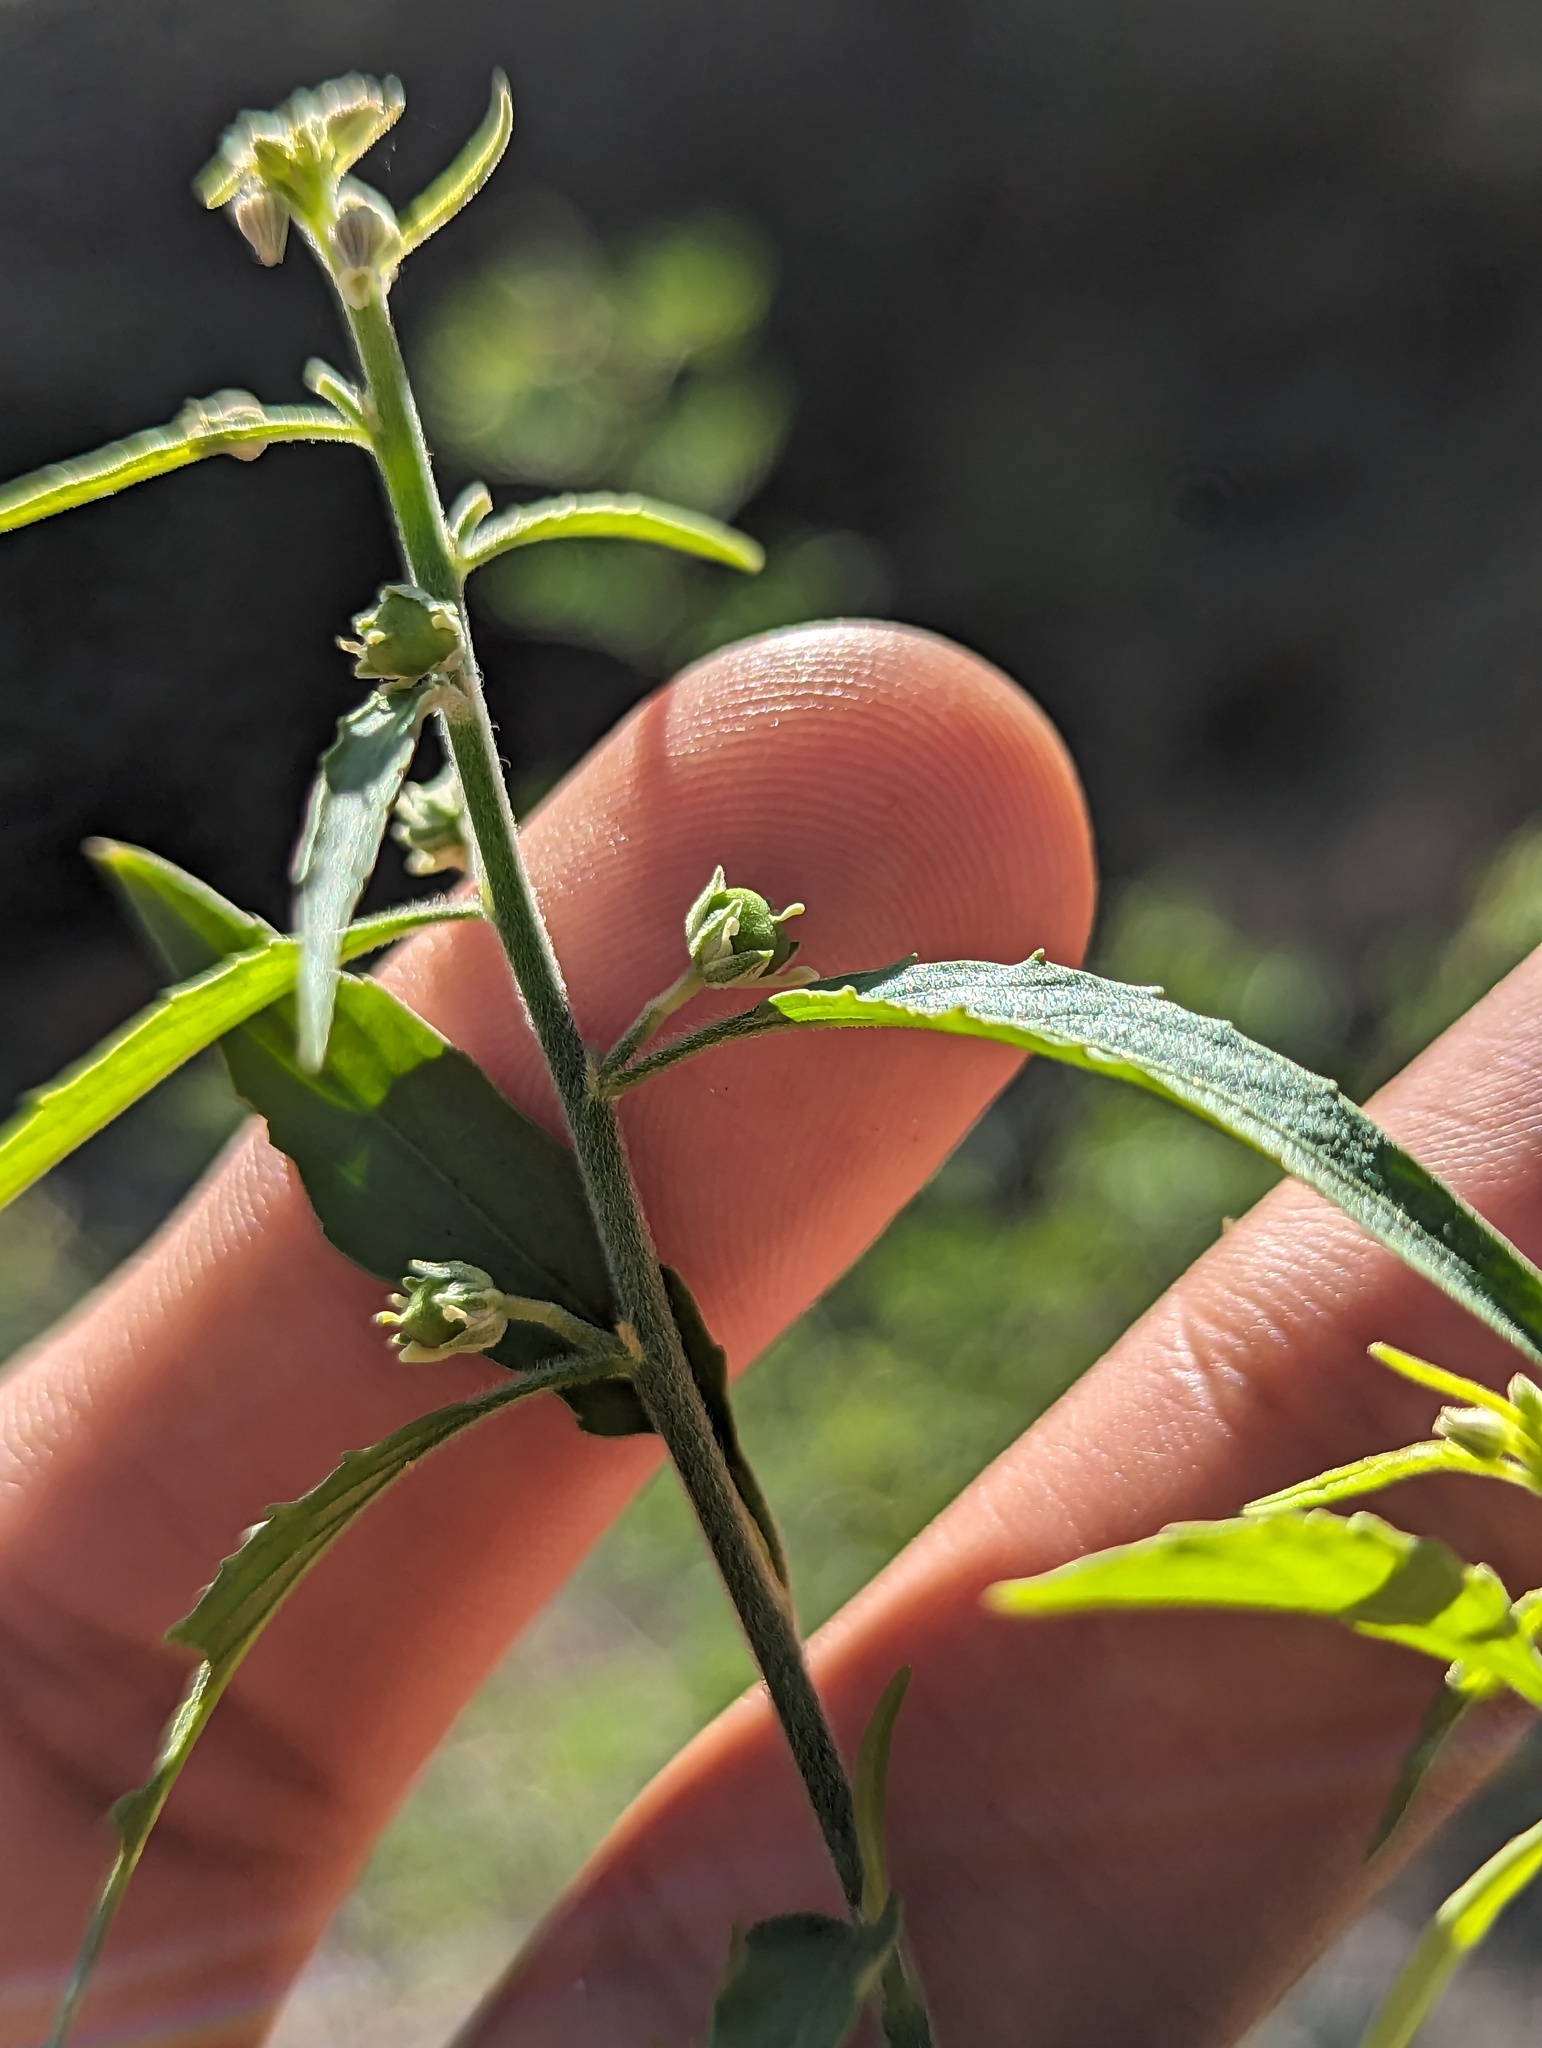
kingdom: Plantae
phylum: Tracheophyta
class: Magnoliopsida
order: Malpighiales
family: Violaceae
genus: Hybanthus
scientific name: Hybanthus fruticulosus
